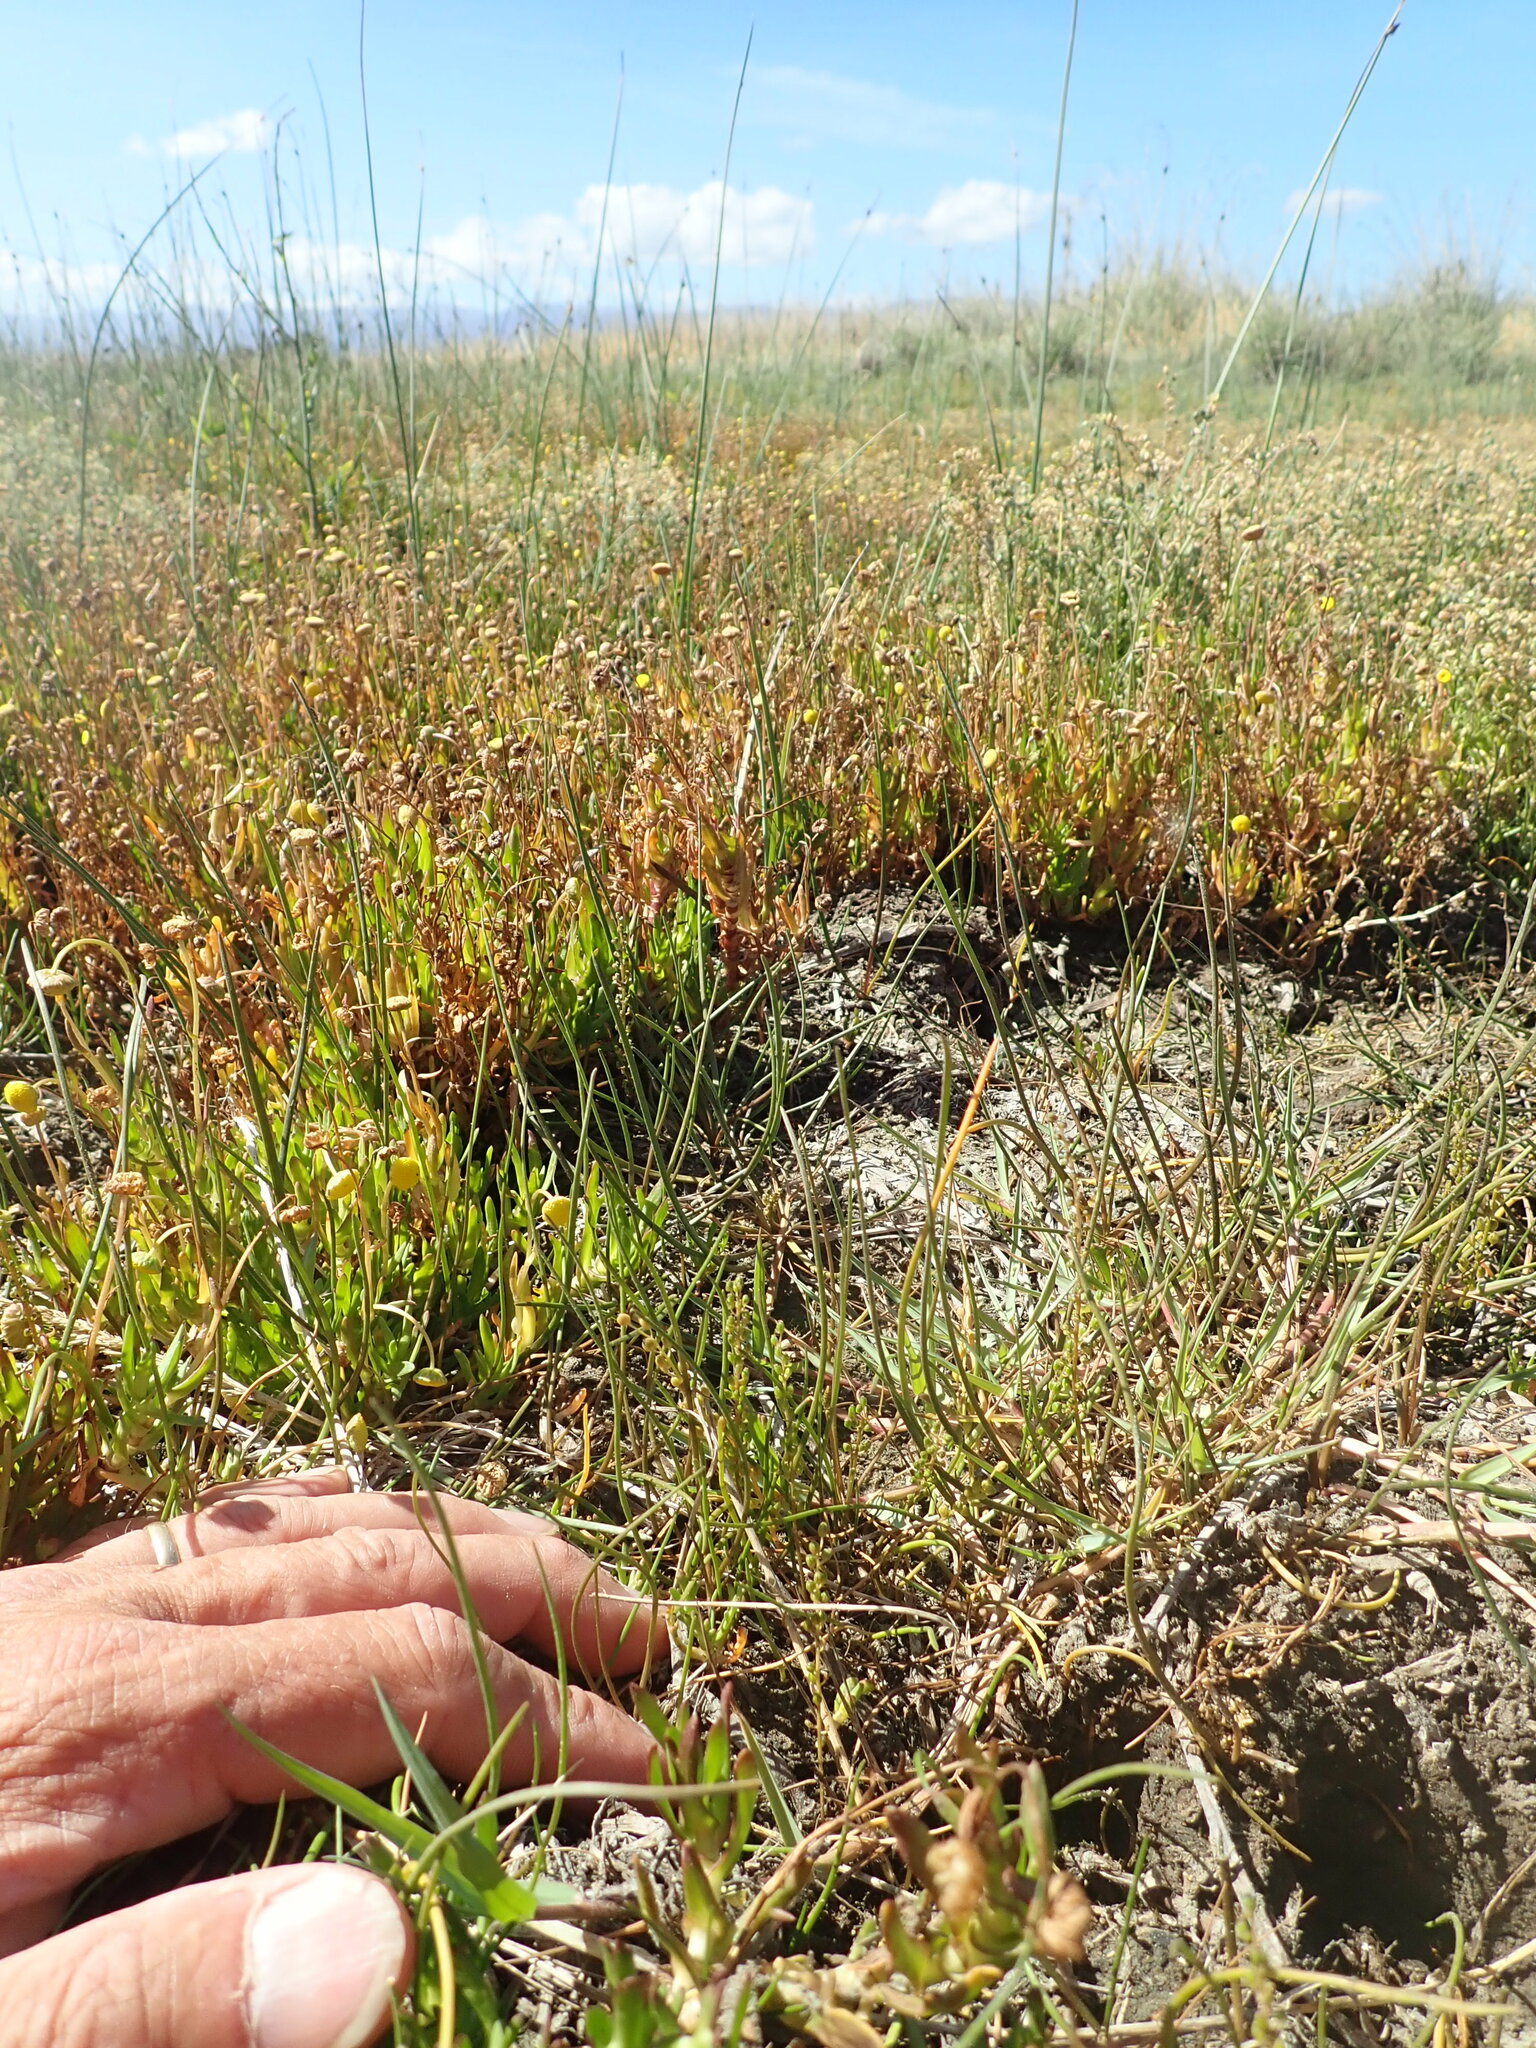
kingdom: Plantae
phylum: Tracheophyta
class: Liliopsida
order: Alismatales
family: Juncaginaceae
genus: Triglochin
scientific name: Triglochin striata
